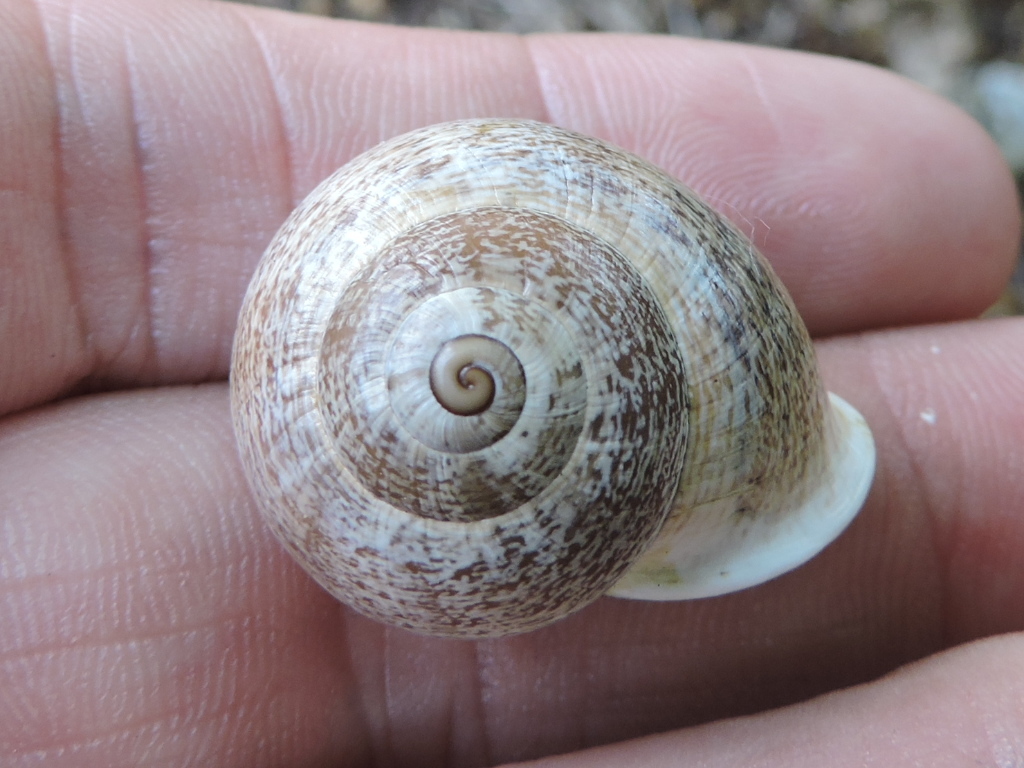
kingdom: Animalia
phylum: Mollusca
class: Gastropoda
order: Stylommatophora
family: Helicidae
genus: Otala
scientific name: Otala lactea
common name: Milk snail
